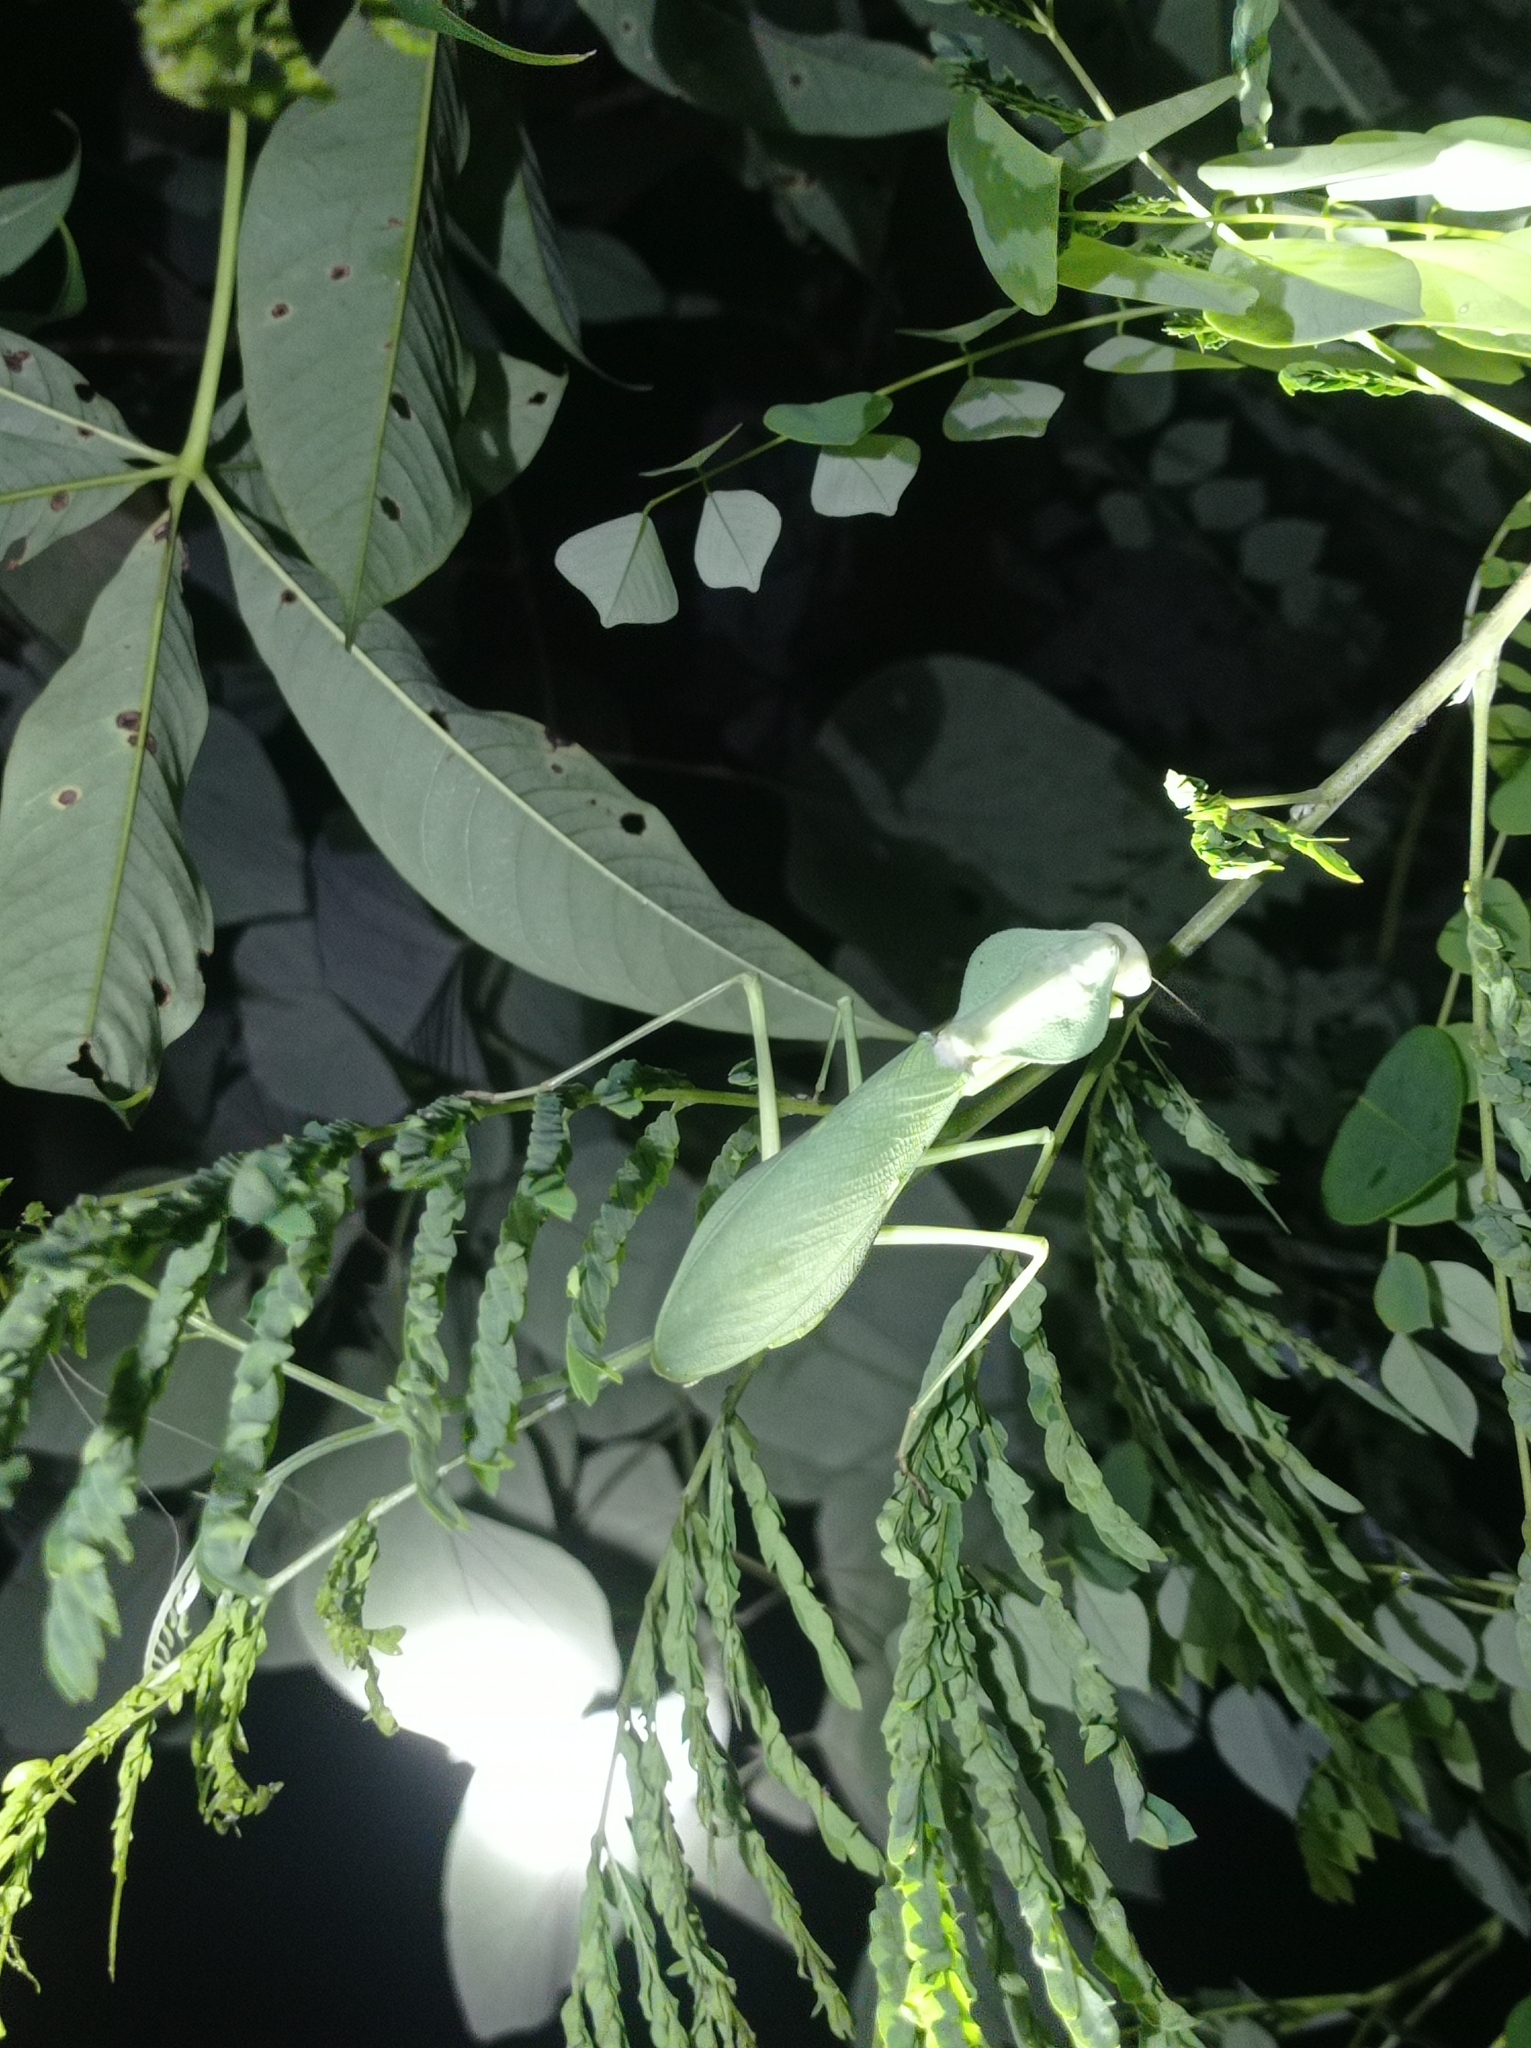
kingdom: Animalia
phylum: Arthropoda
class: Insecta
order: Mantodea
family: Mantidae
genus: Rhombodera
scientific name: Rhombodera kirbyi
